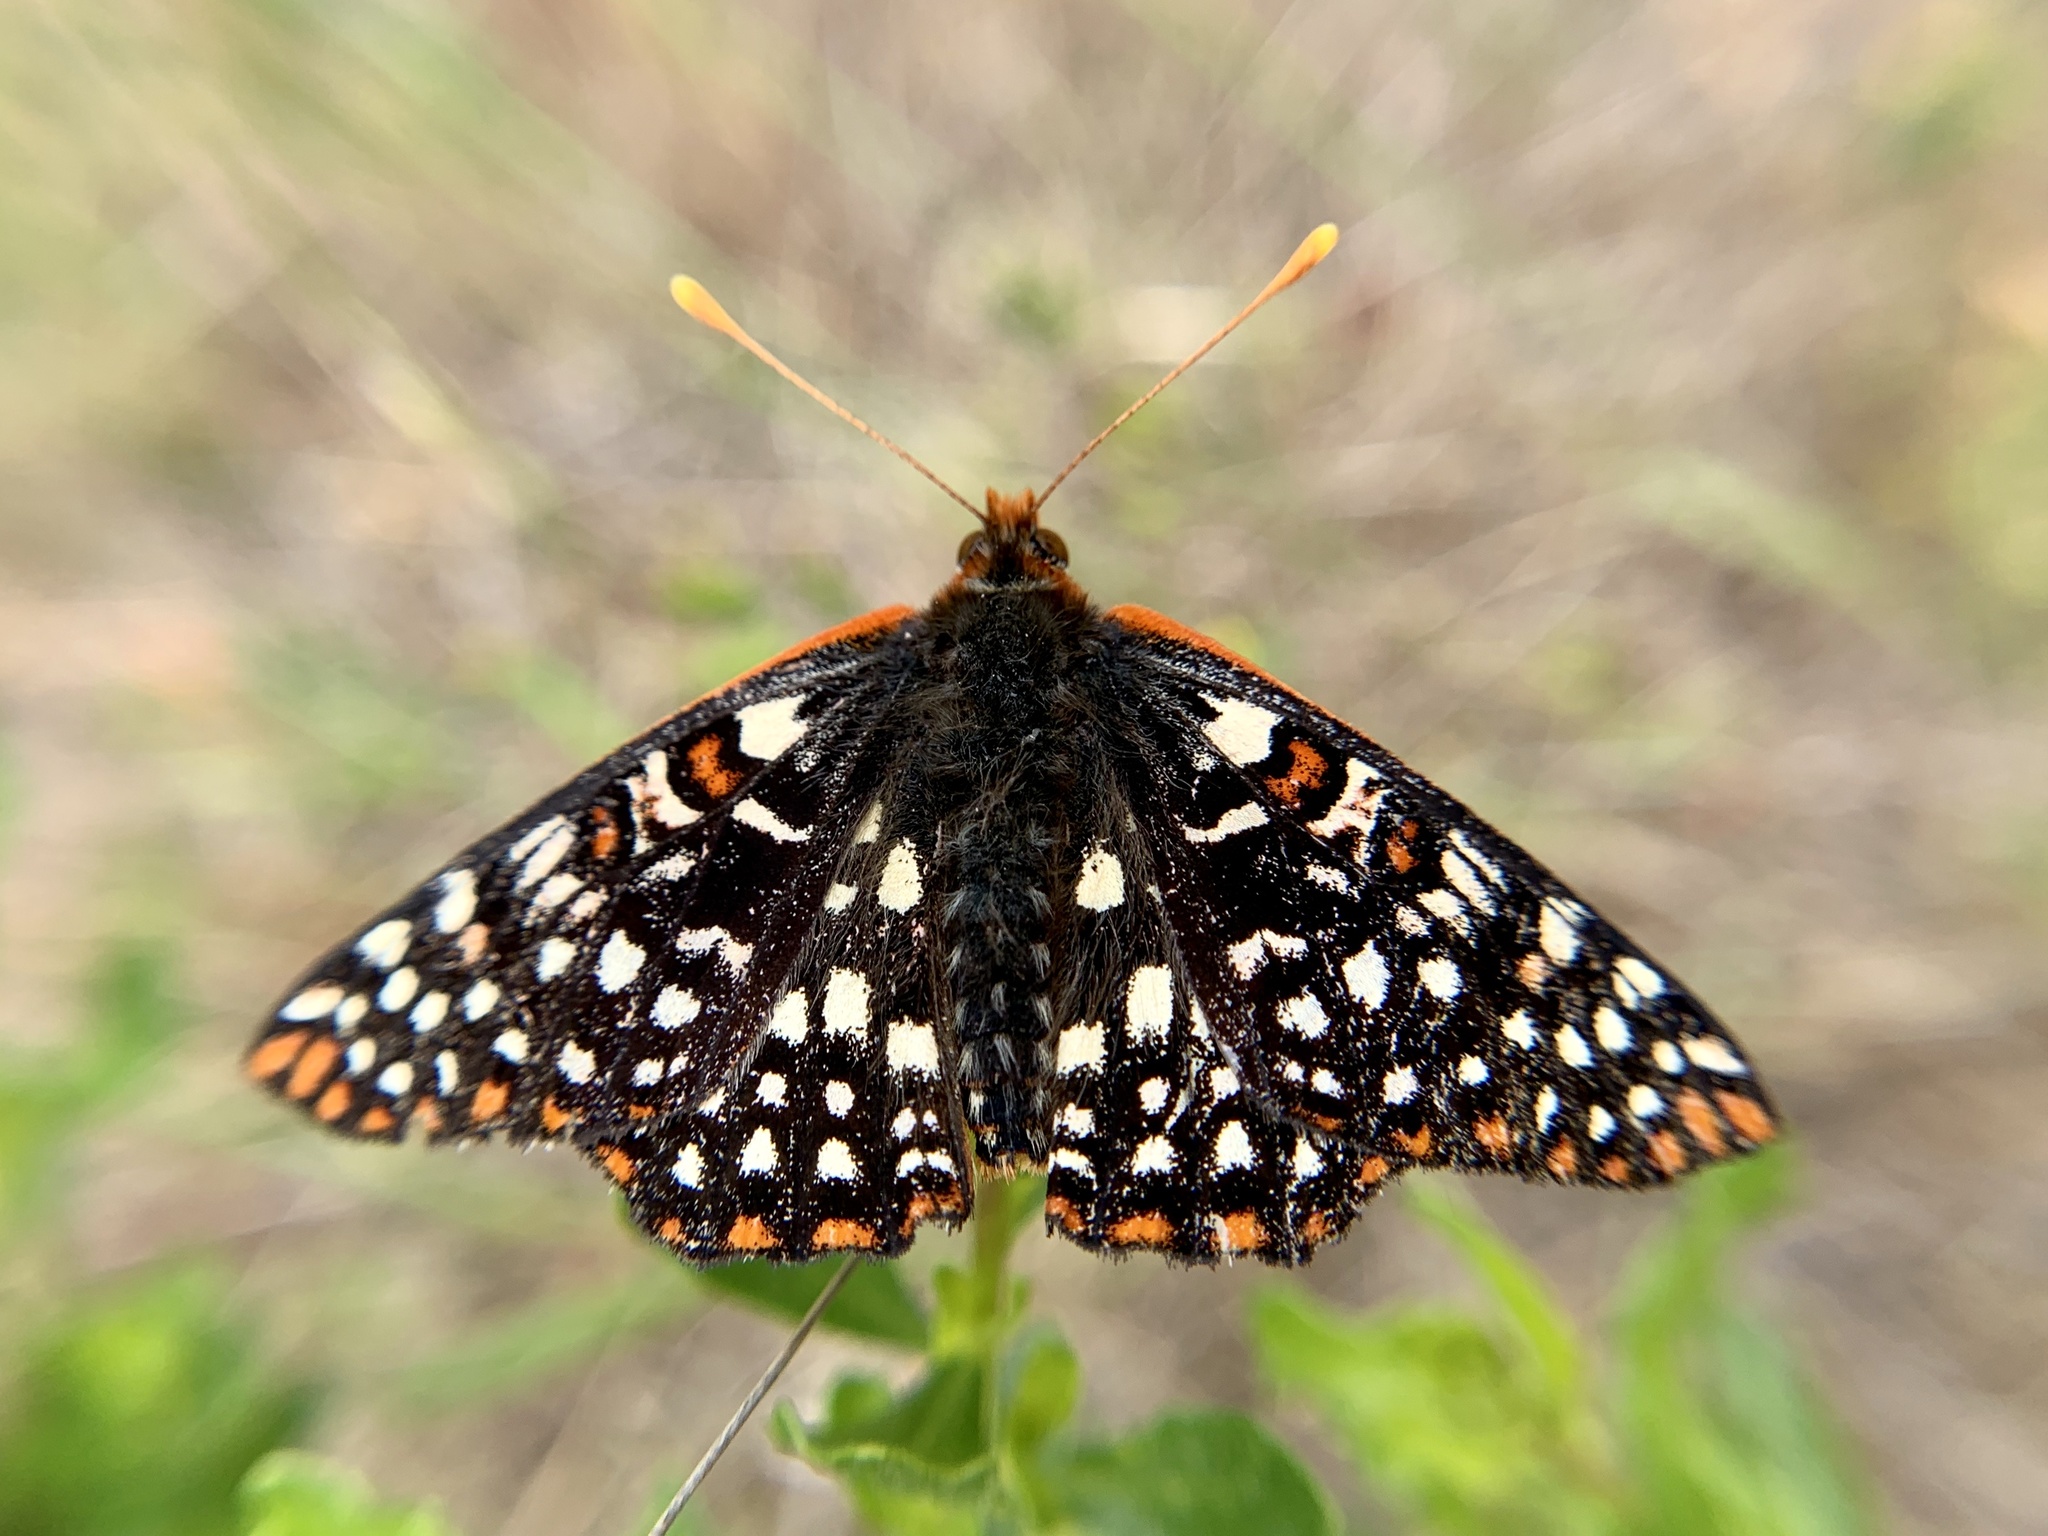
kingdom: Animalia
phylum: Arthropoda
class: Insecta
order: Lepidoptera
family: Nymphalidae
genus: Occidryas
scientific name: Occidryas chalcedona
